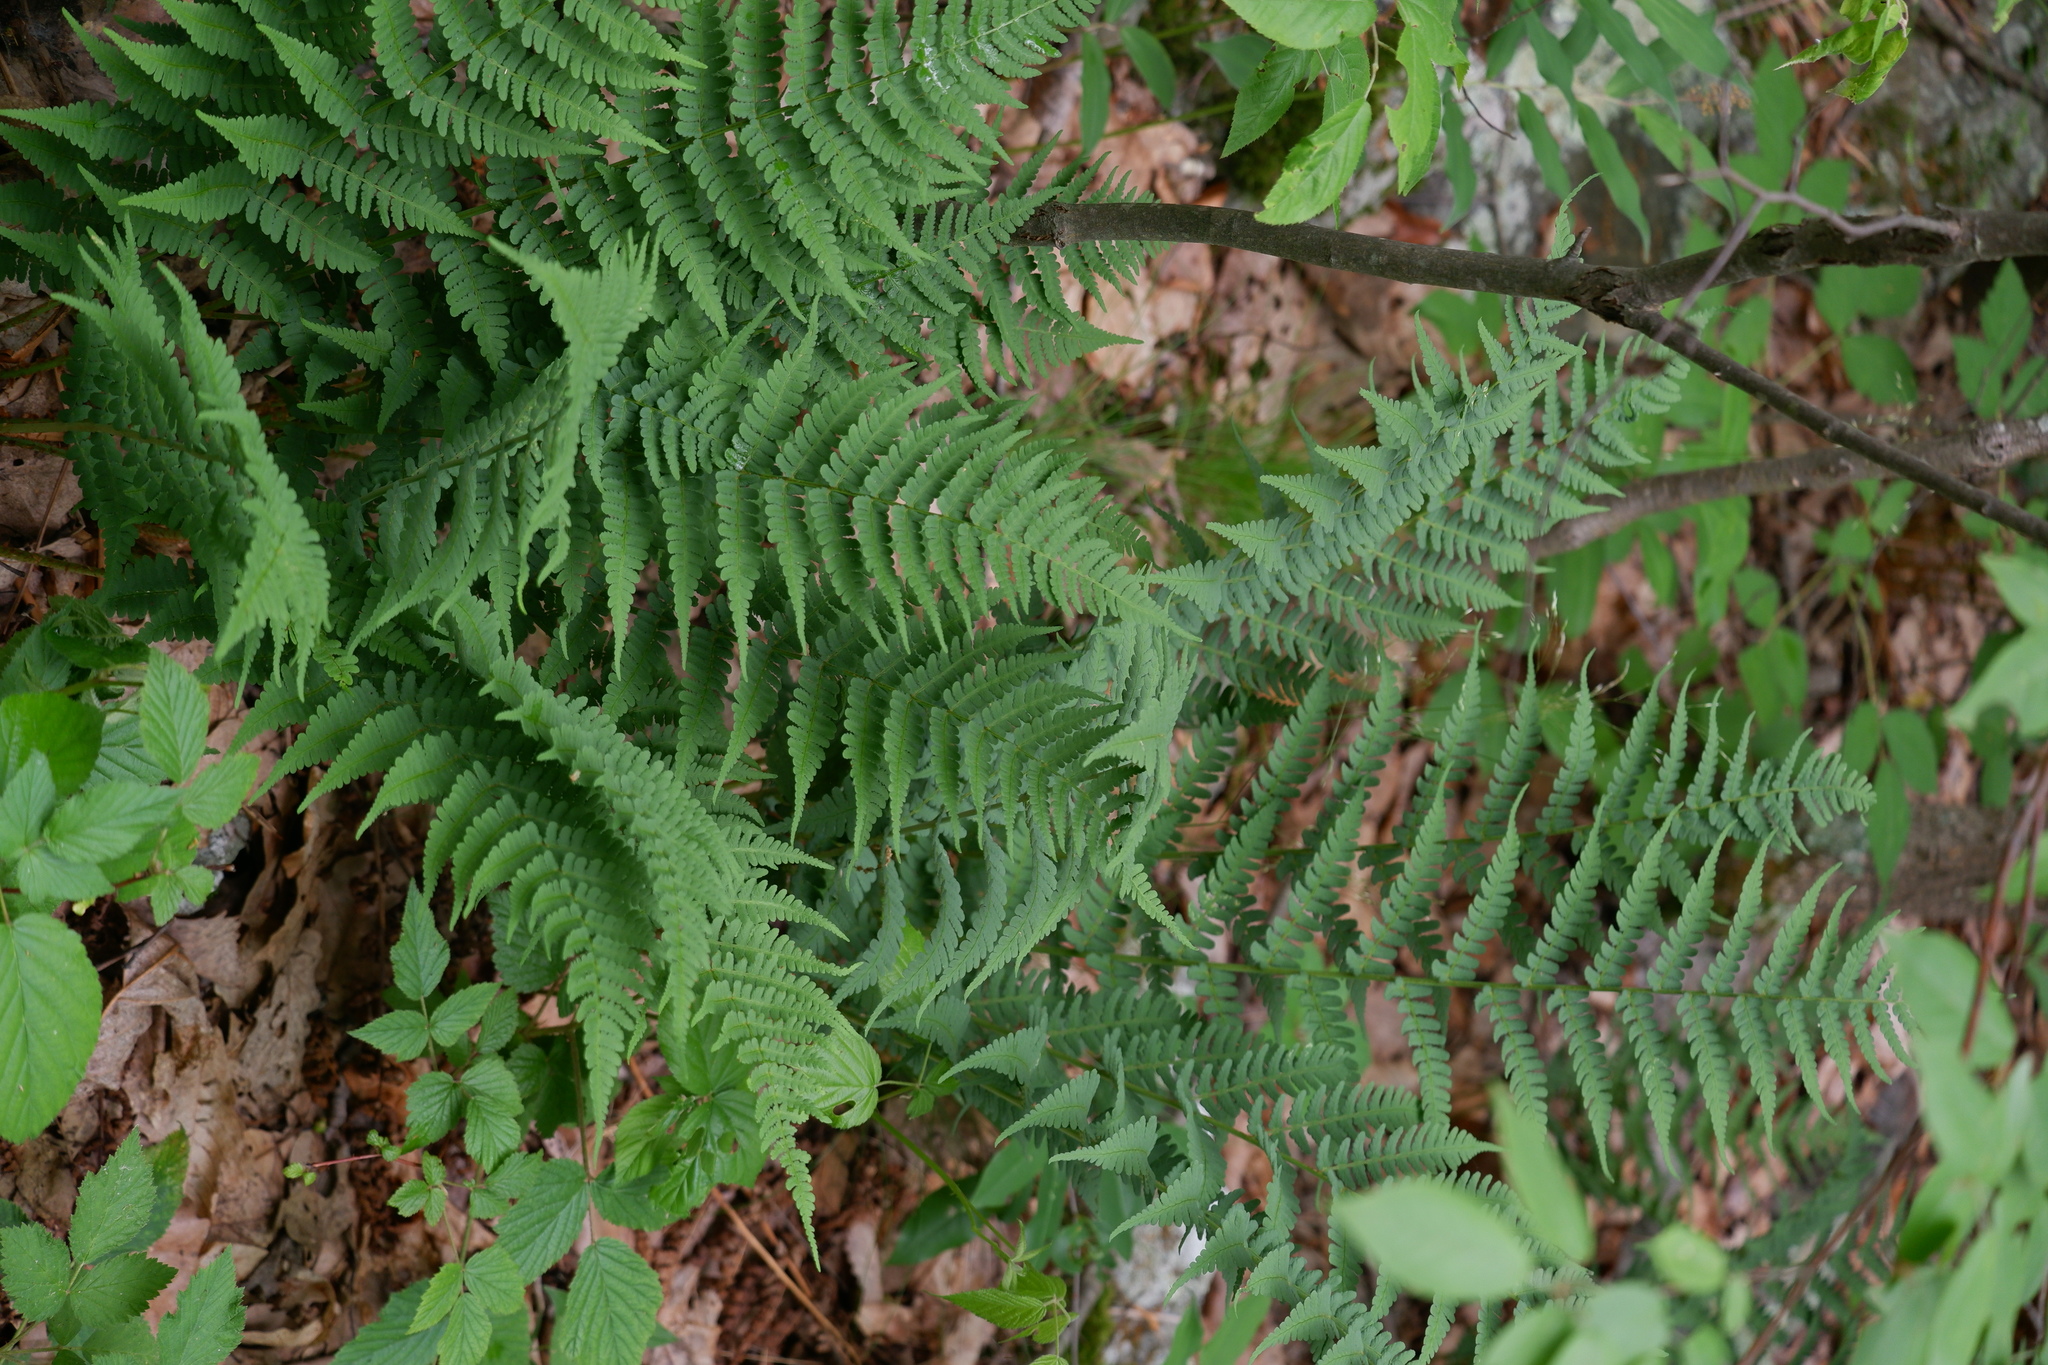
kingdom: Plantae
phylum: Tracheophyta
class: Polypodiopsida
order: Polypodiales
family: Dryopteridaceae
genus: Dryopteris
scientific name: Dryopteris marginalis
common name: Marginal wood fern
